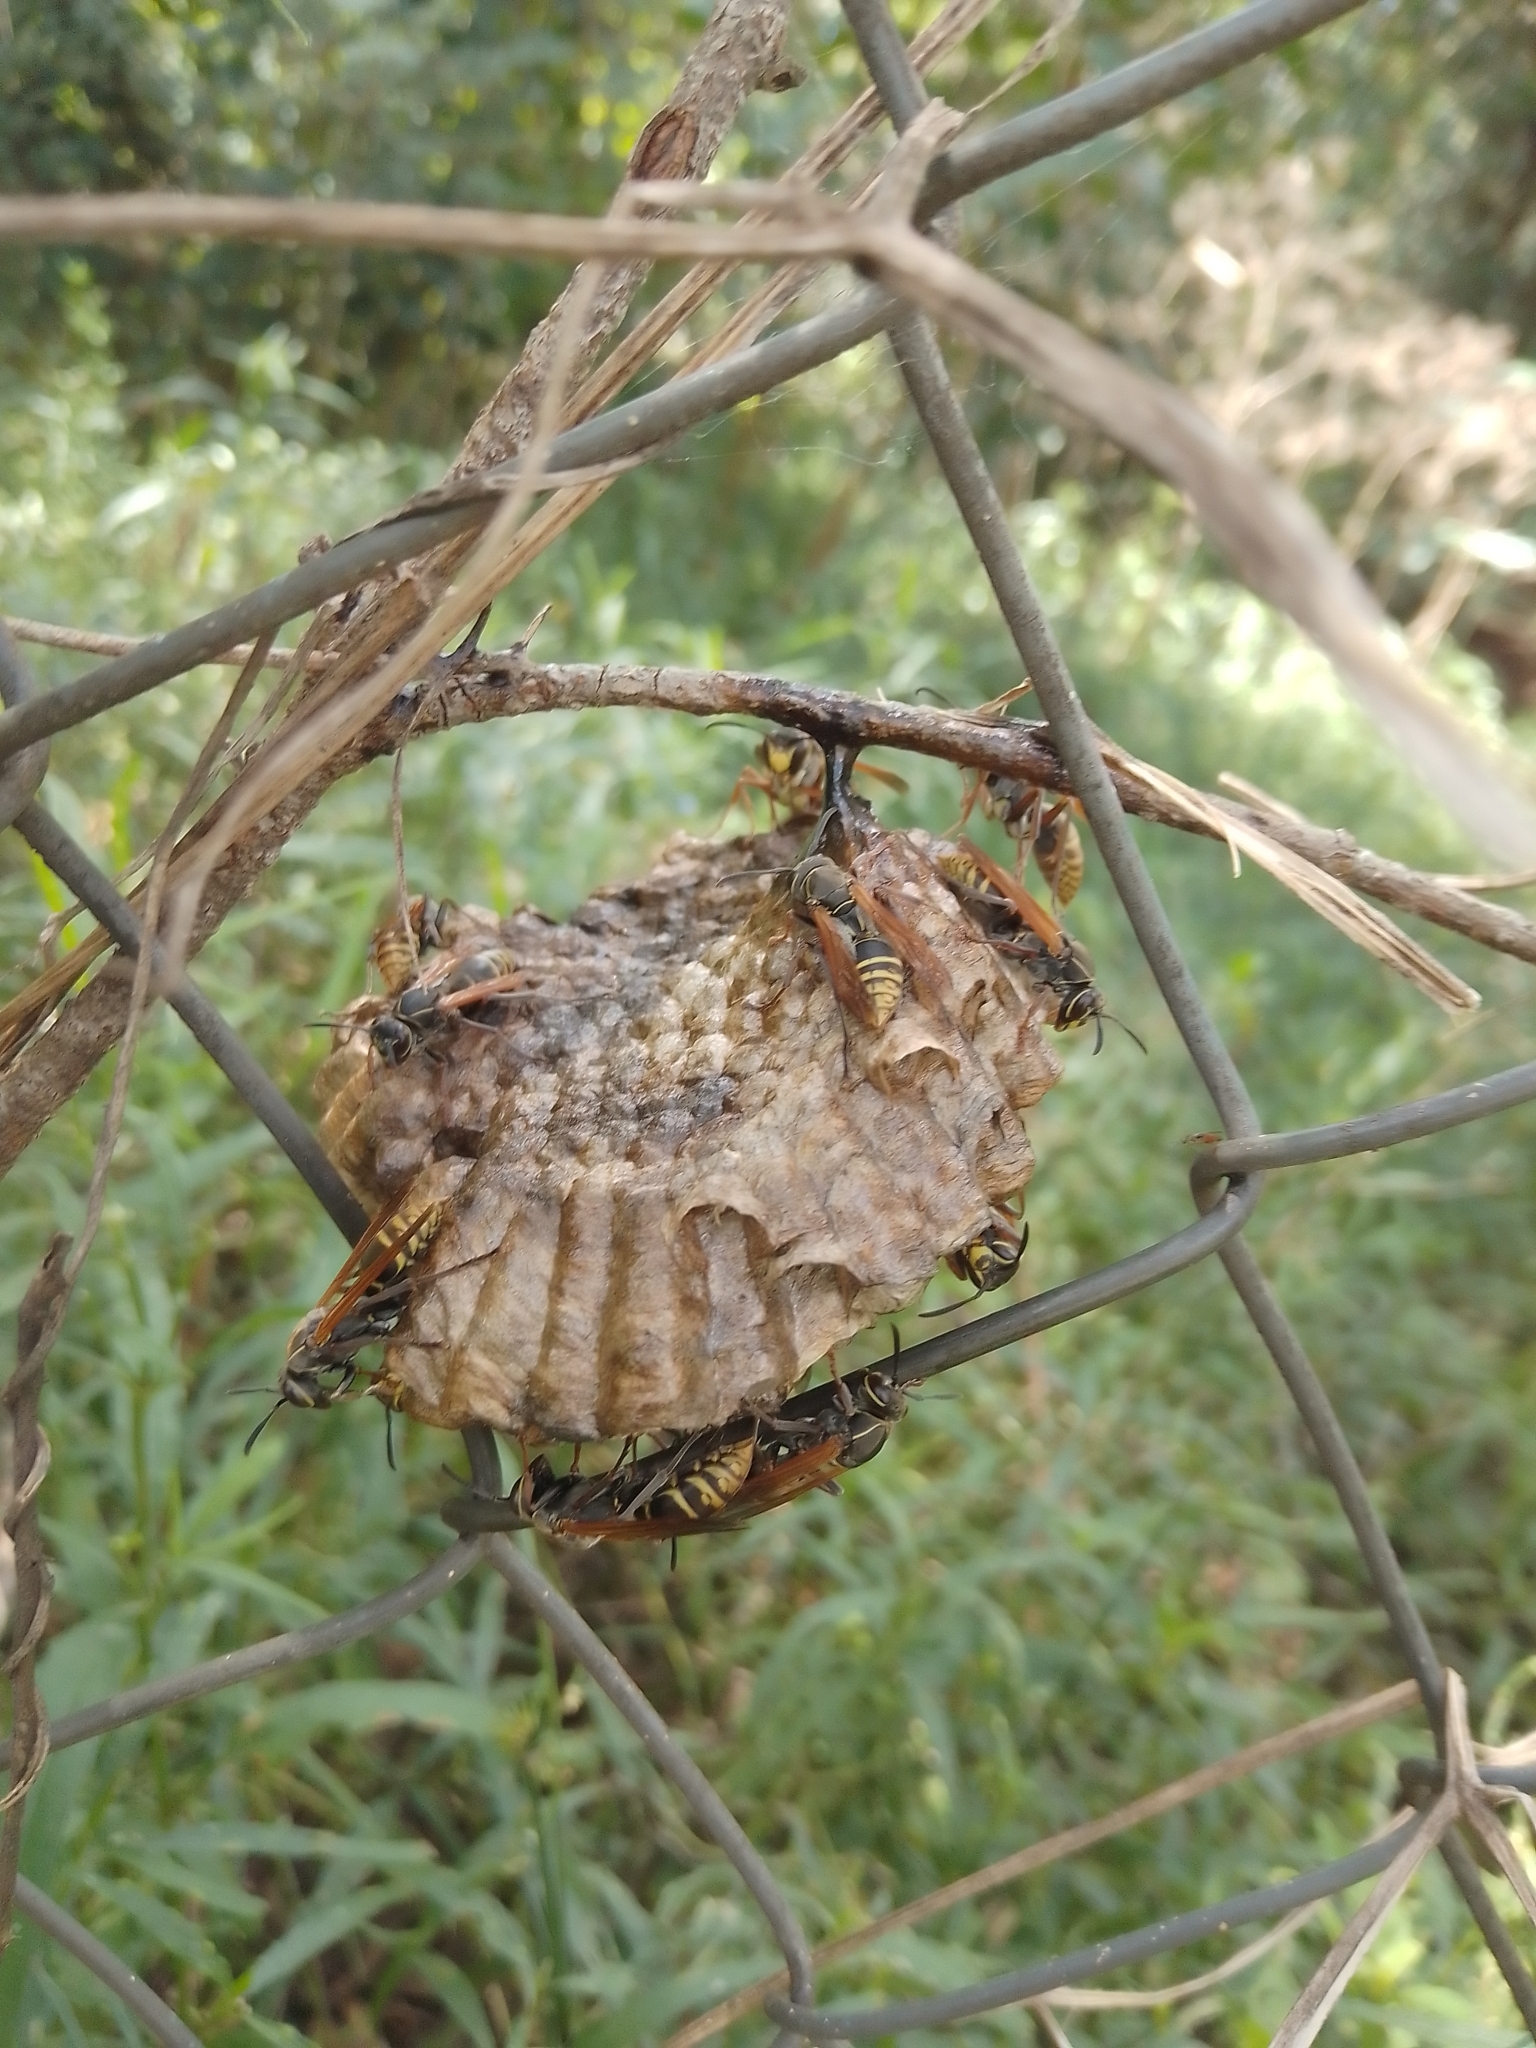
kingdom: Animalia
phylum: Arthropoda
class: Insecta
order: Hymenoptera
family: Eumenidae
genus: Polistes
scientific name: Polistes cinerascens
